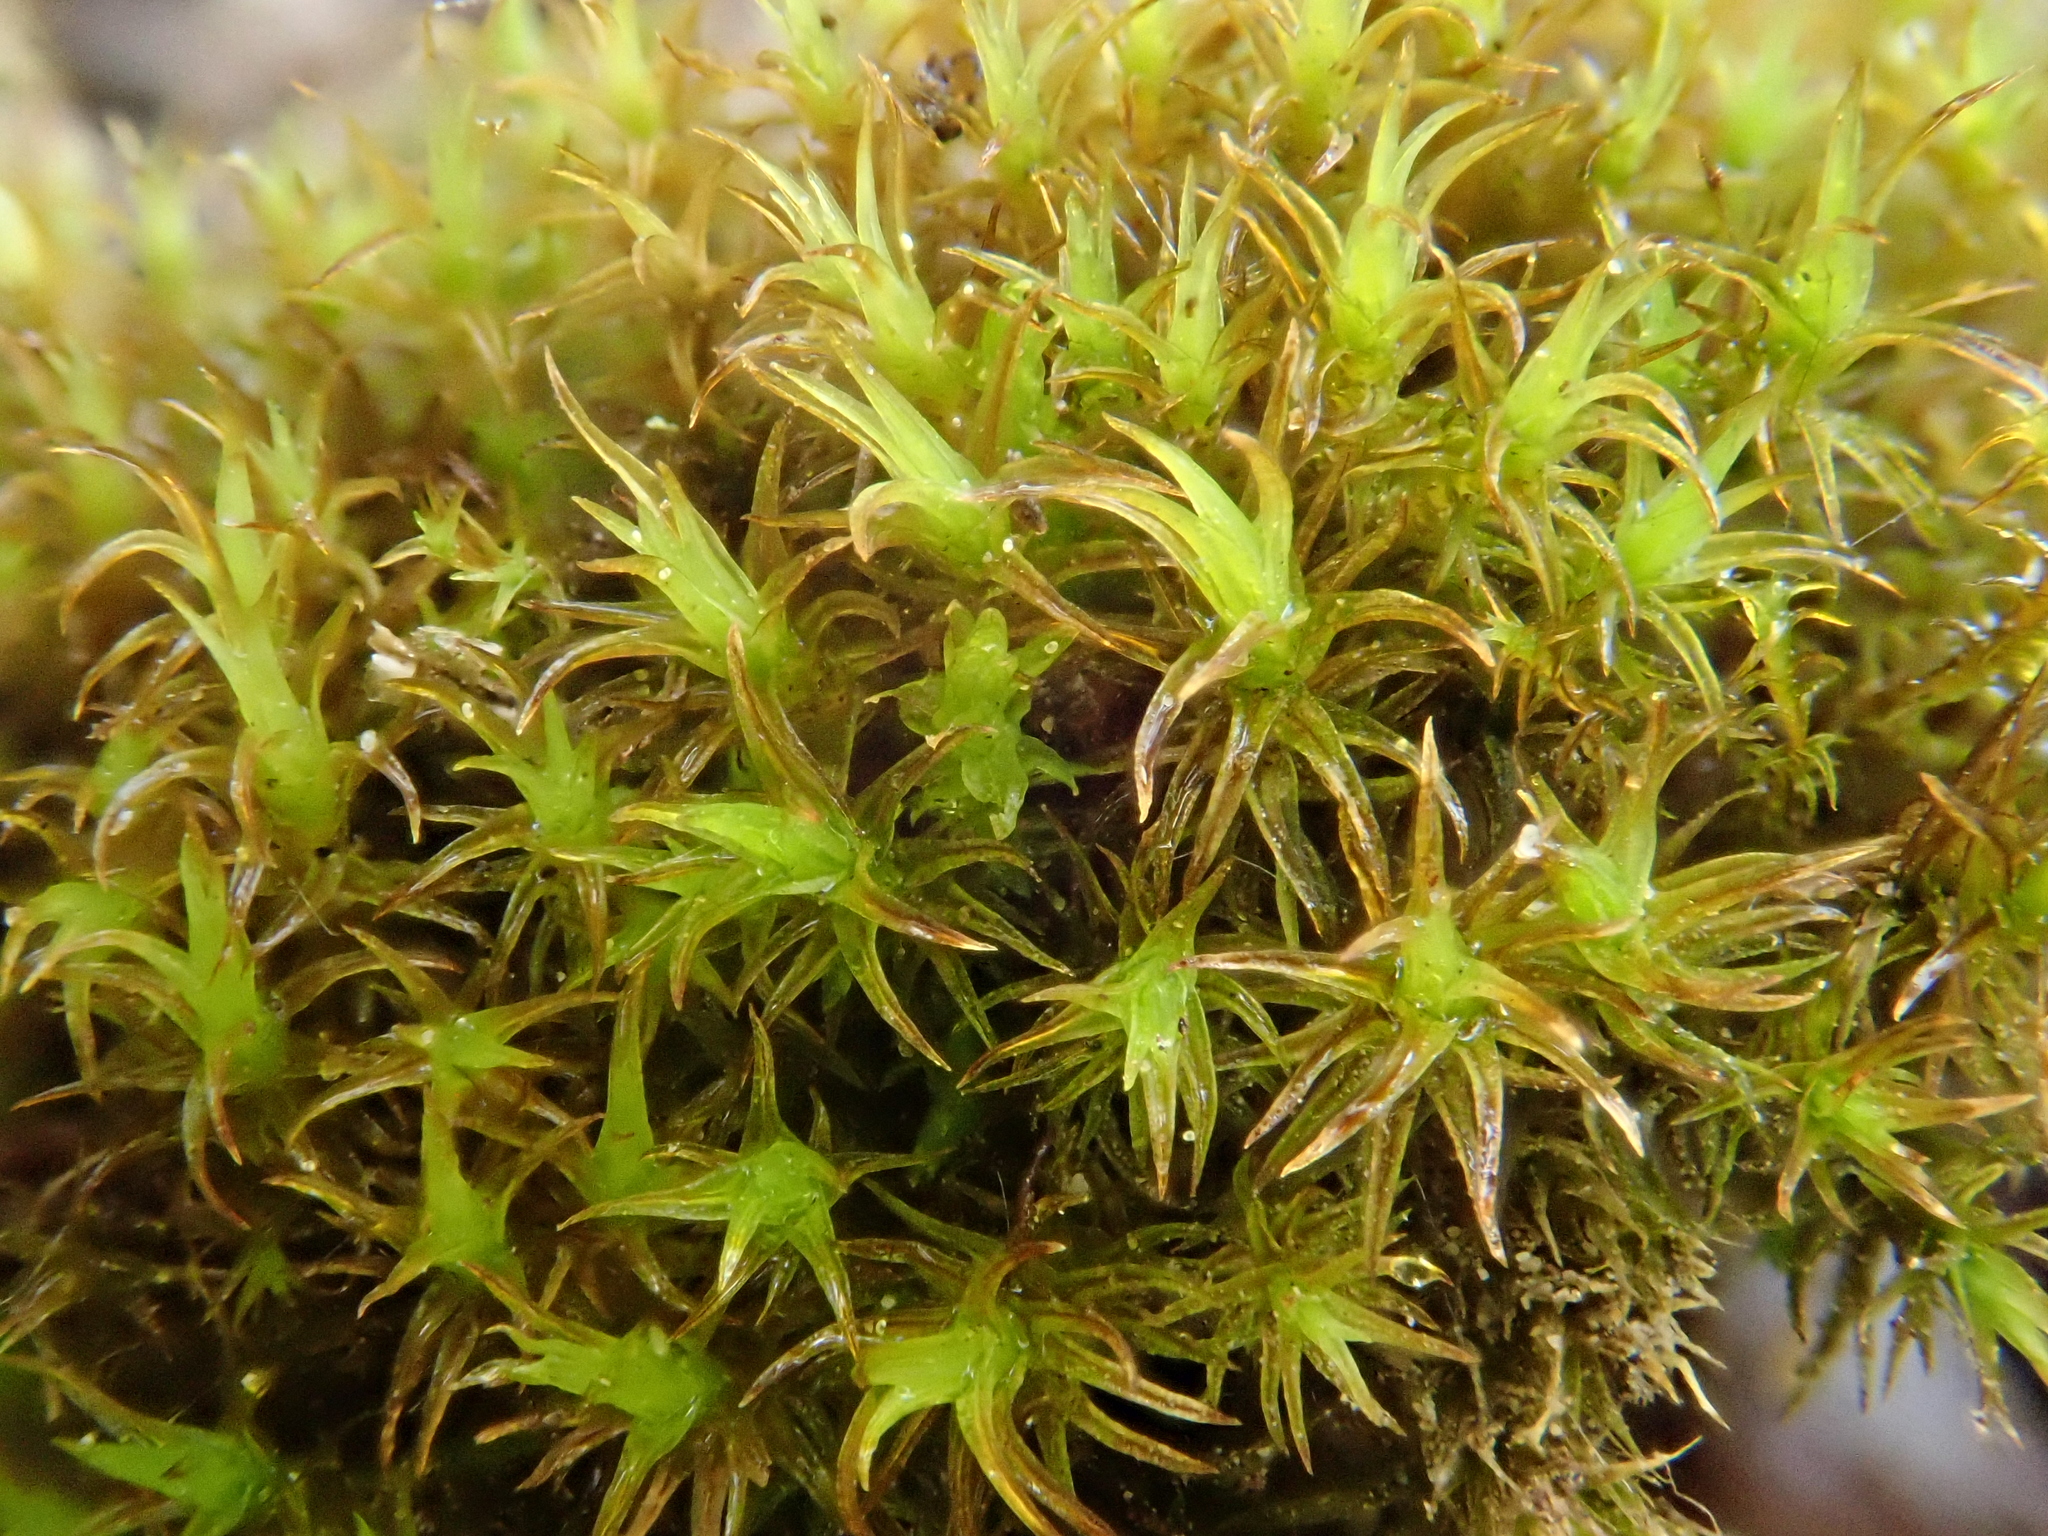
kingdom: Plantae
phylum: Bryophyta
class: Bryopsida
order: Pottiales
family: Pottiaceae
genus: Geheebia
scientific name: Geheebia fallax
